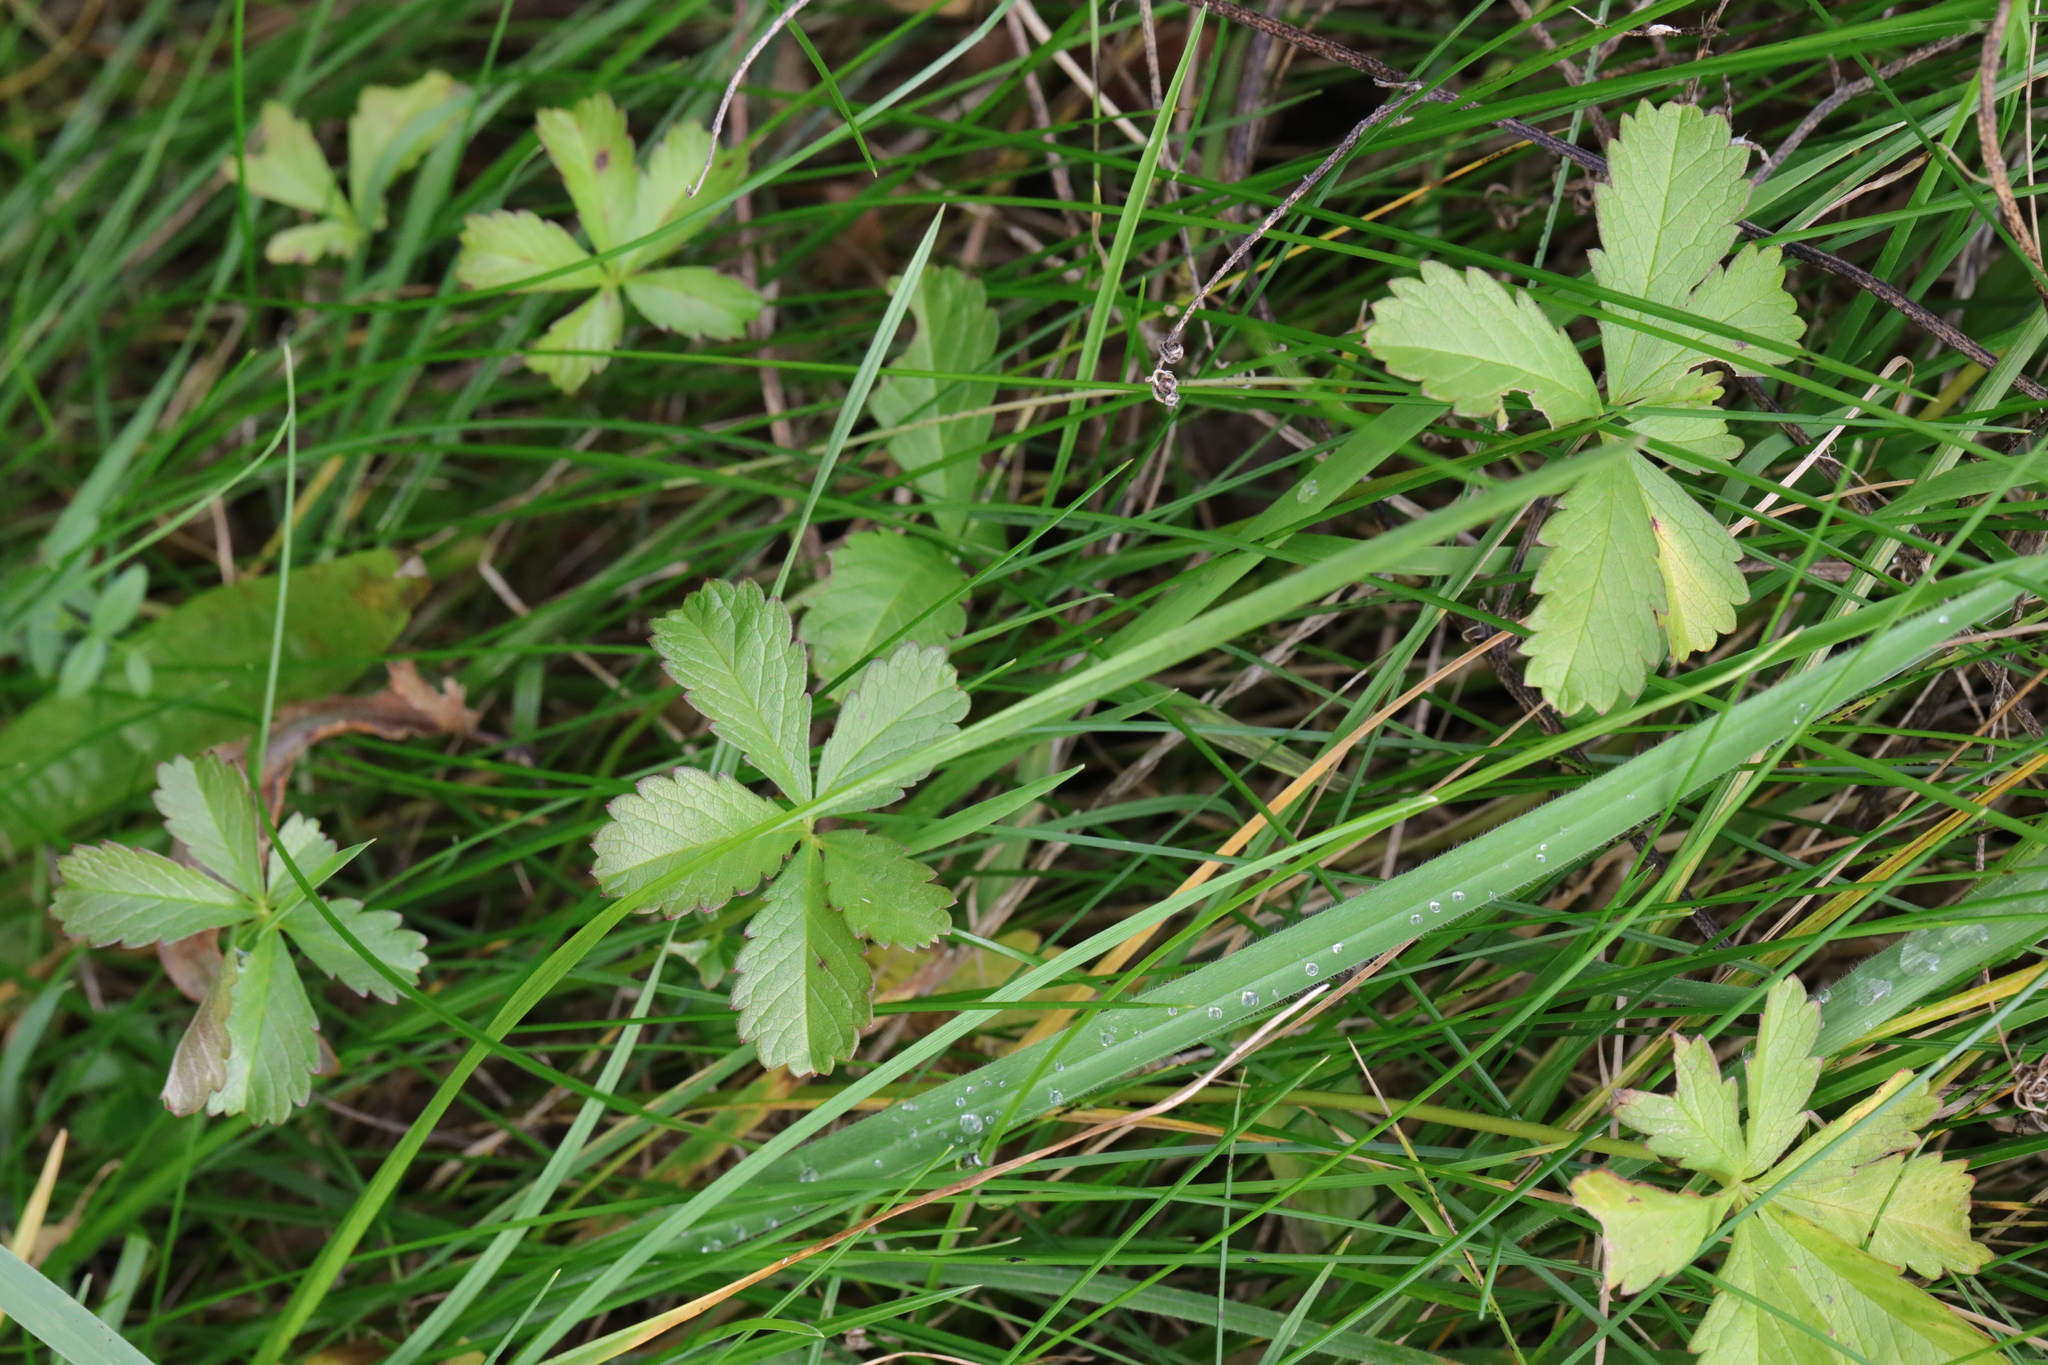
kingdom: Plantae
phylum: Tracheophyta
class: Magnoliopsida
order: Rosales
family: Rosaceae
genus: Potentilla
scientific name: Potentilla reptans
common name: Creeping cinquefoil
